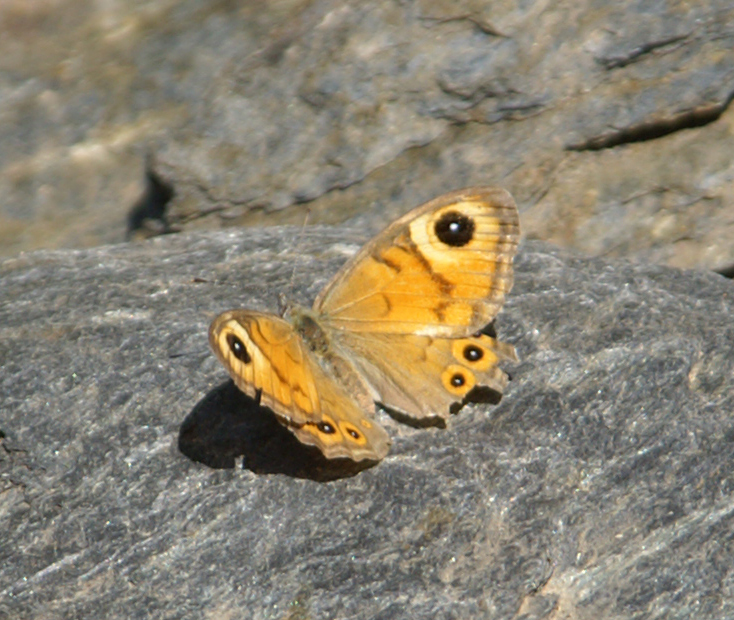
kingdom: Animalia
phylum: Arthropoda
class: Insecta
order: Lepidoptera
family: Nymphalidae
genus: Pararge
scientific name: Pararge Lasiommata maera
